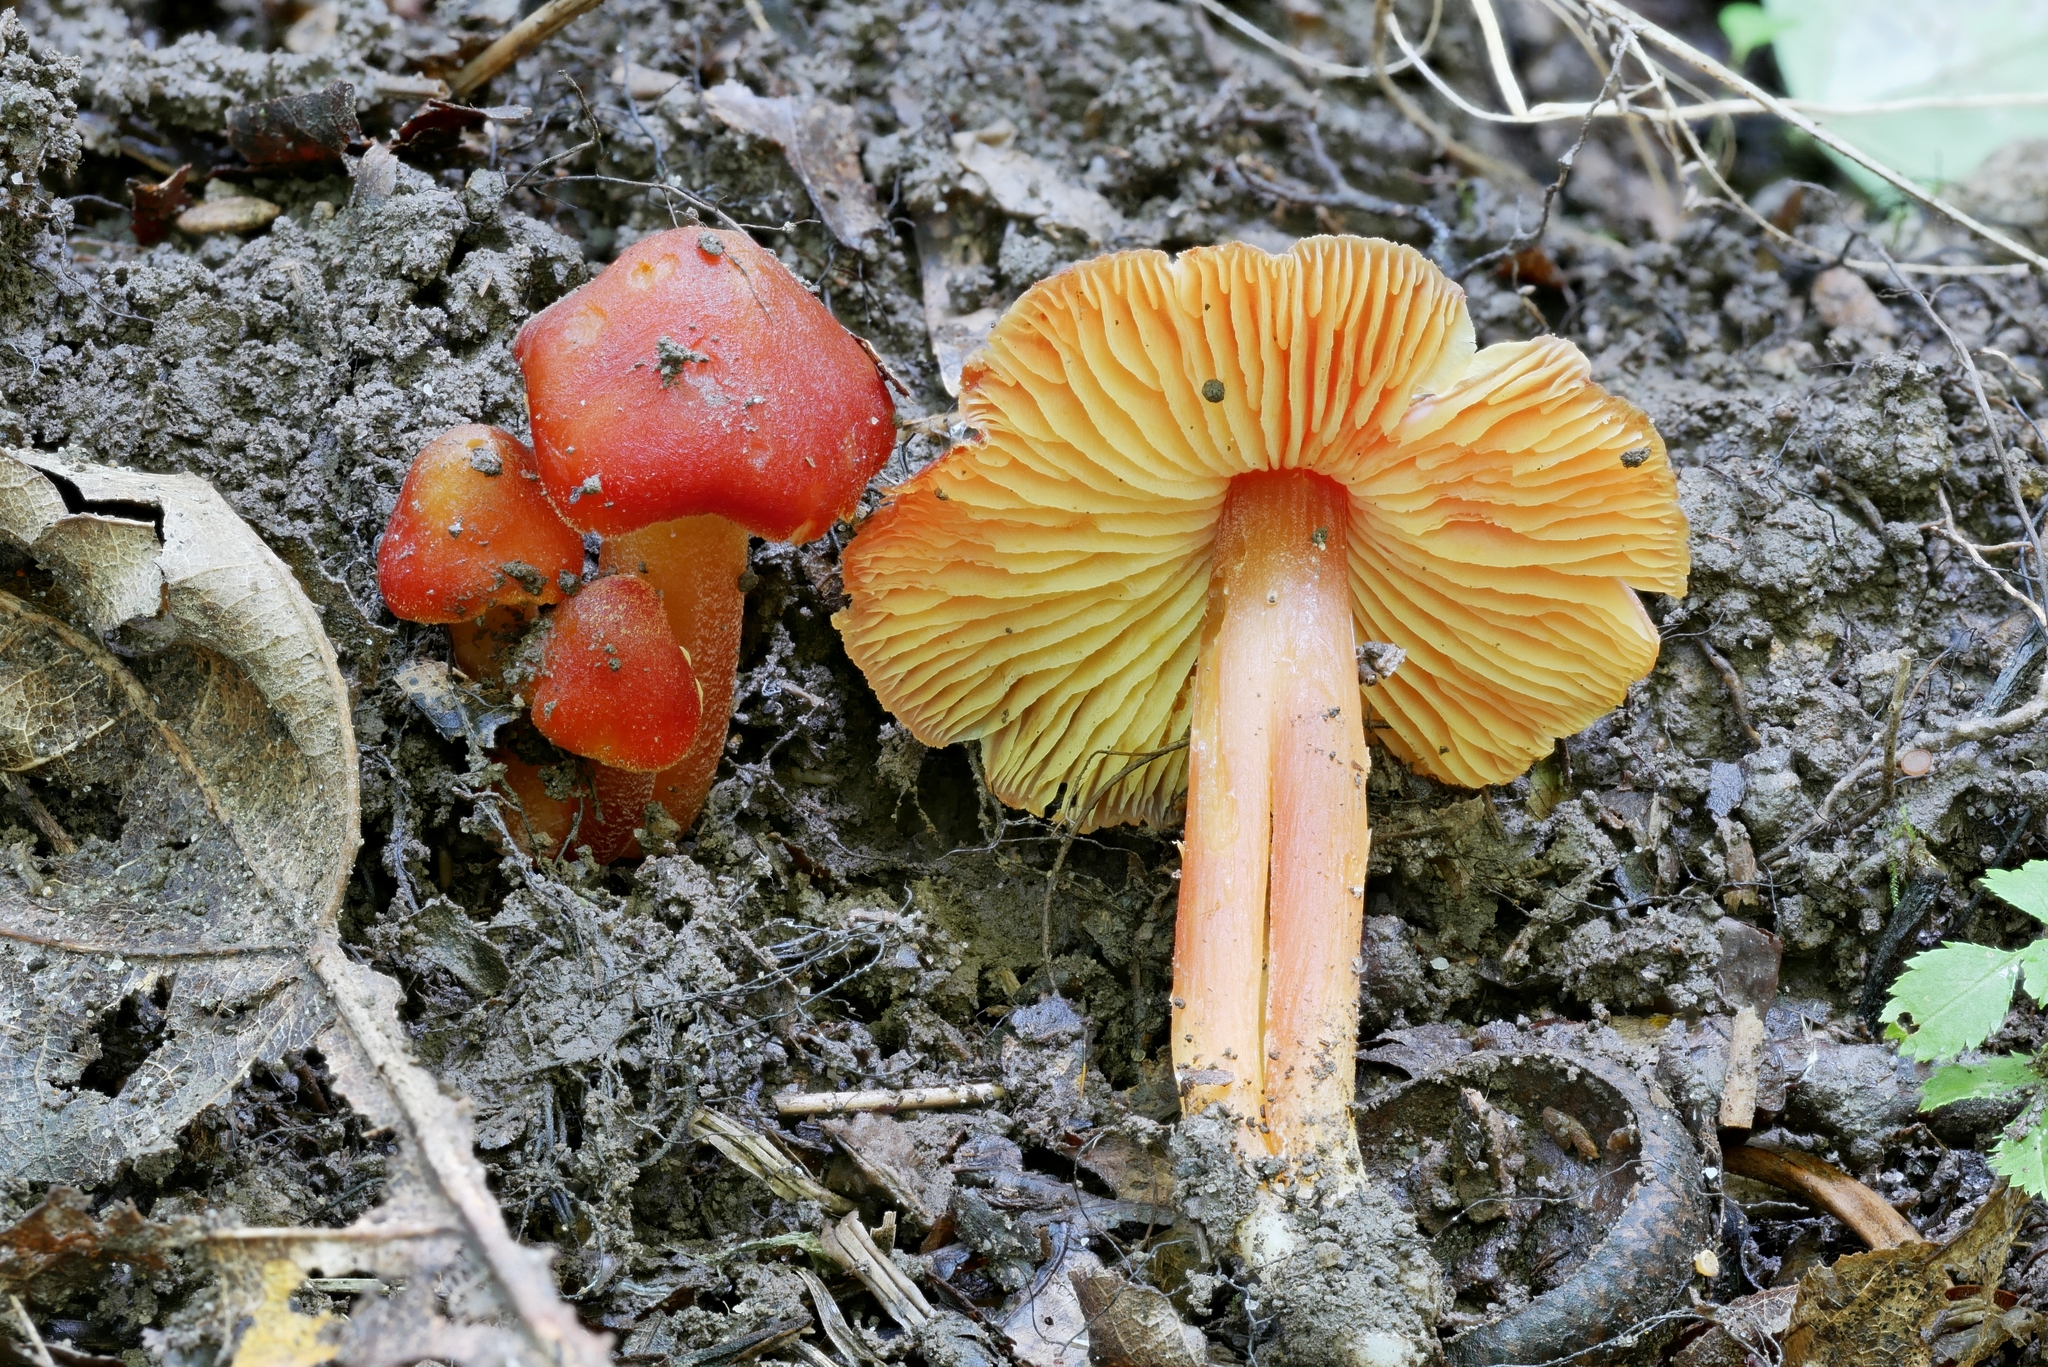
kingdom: Fungi
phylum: Basidiomycota
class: Agaricomycetes
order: Agaricales
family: Hygrophoraceae
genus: Hygrocybe
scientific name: Hygrocybe acutoconica
